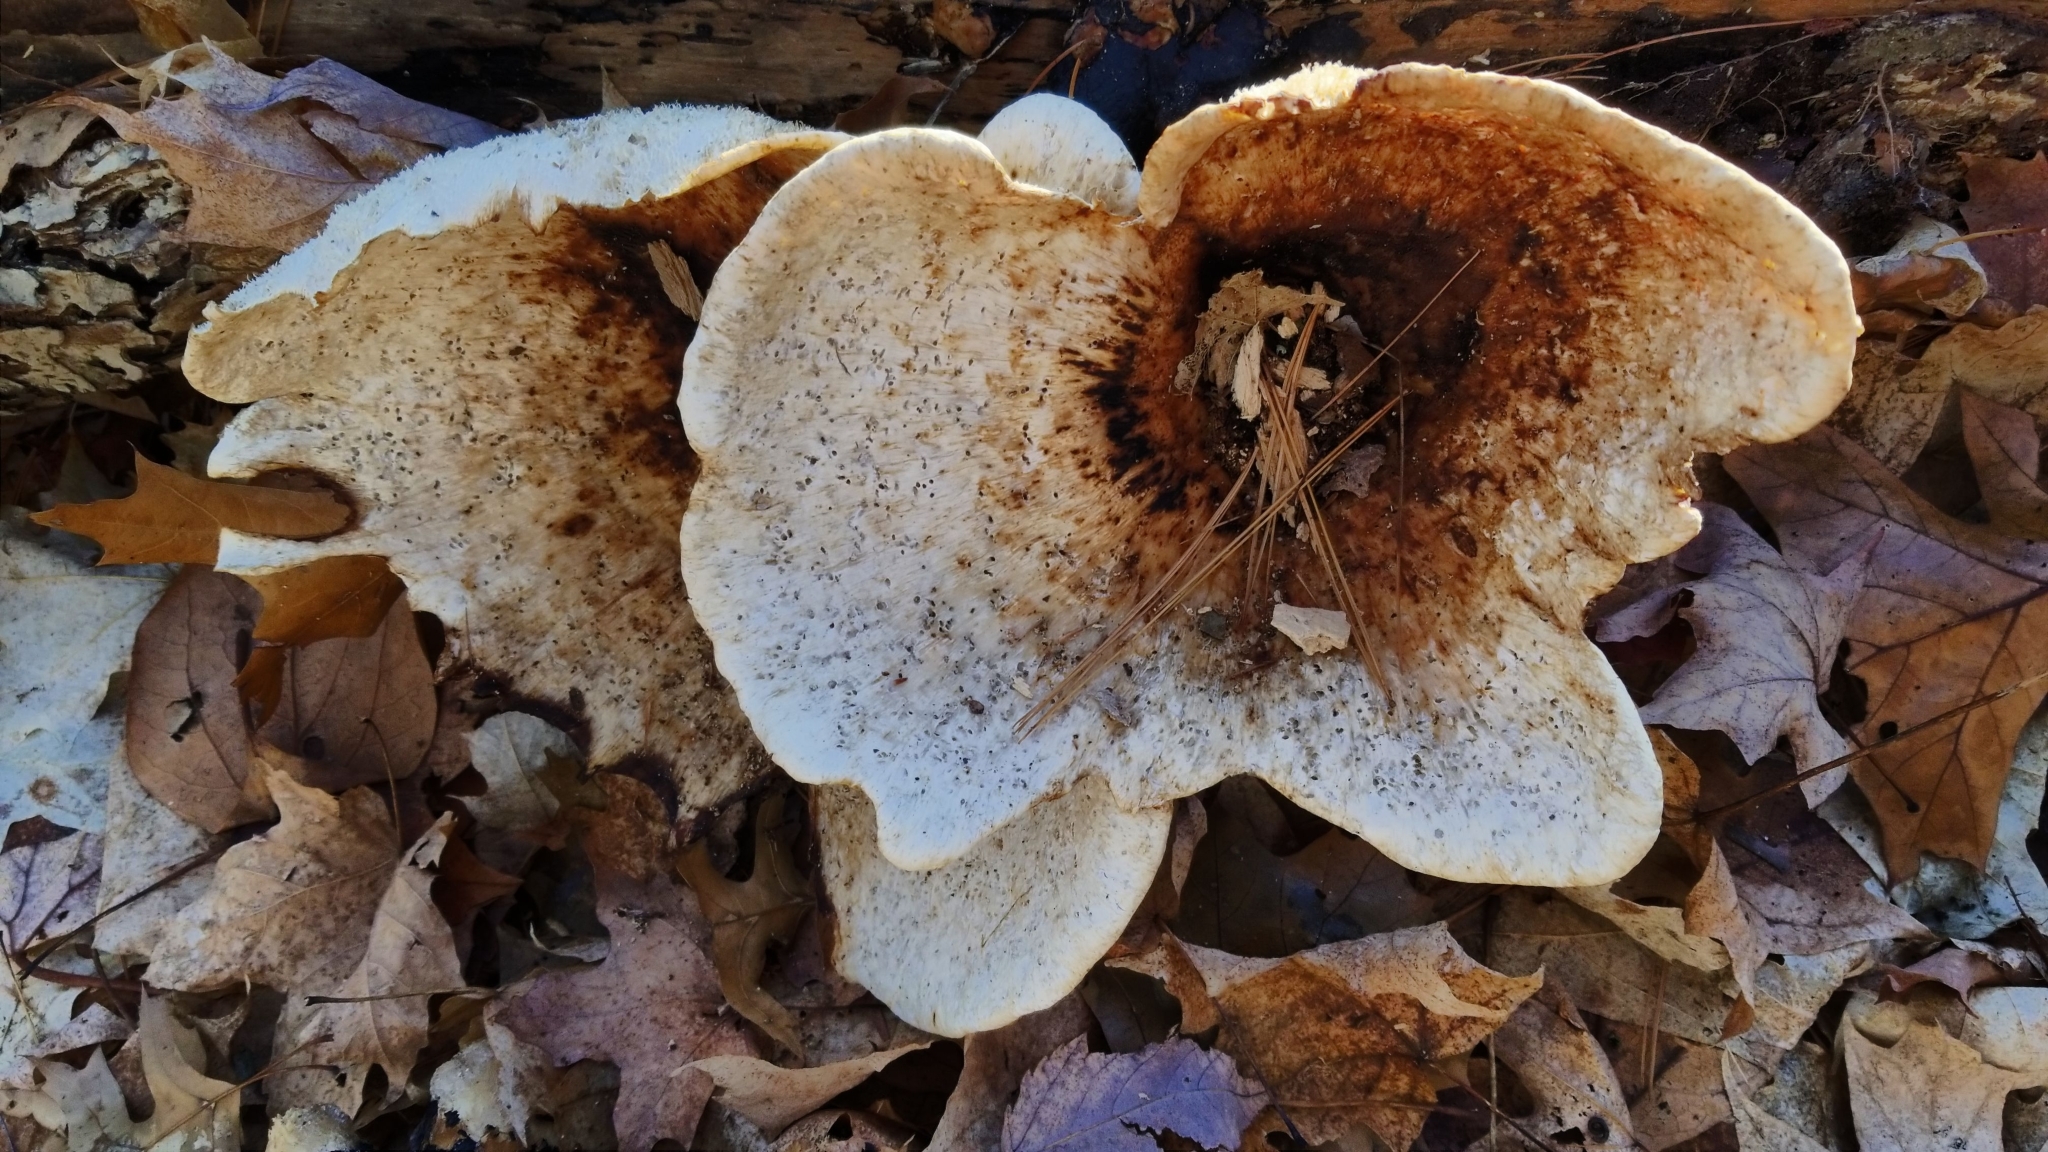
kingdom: Fungi
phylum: Basidiomycota
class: Agaricomycetes
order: Polyporales
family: Polyporaceae
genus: Cerioporus
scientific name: Cerioporus squamosus
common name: Dryad's saddle
